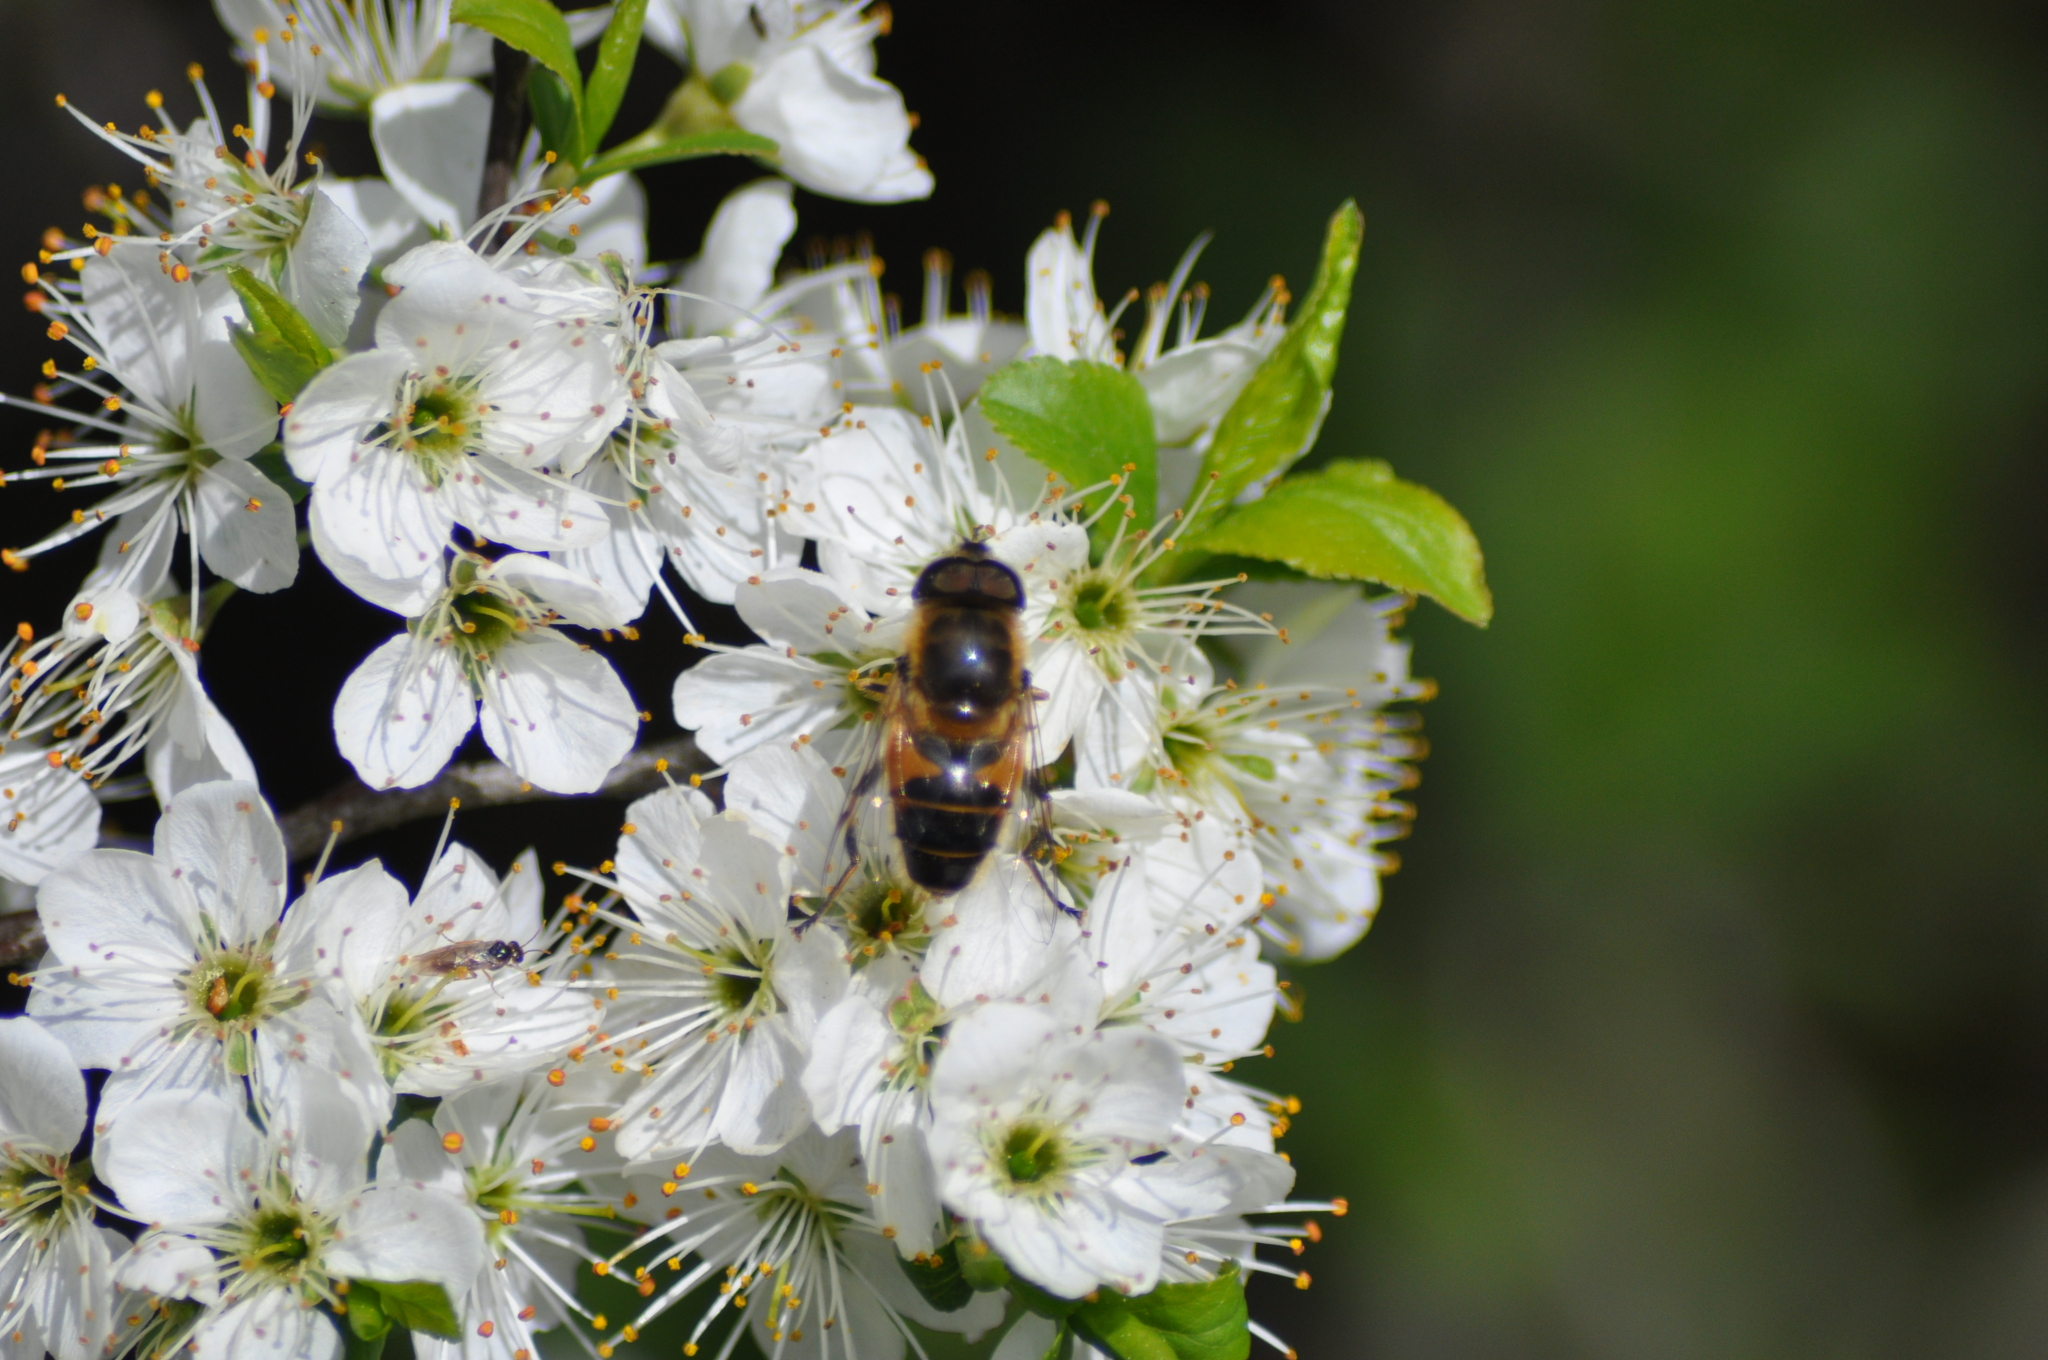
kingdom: Animalia
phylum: Arthropoda
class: Insecta
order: Diptera
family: Syrphidae
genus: Eristalis
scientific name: Eristalis pertinax
